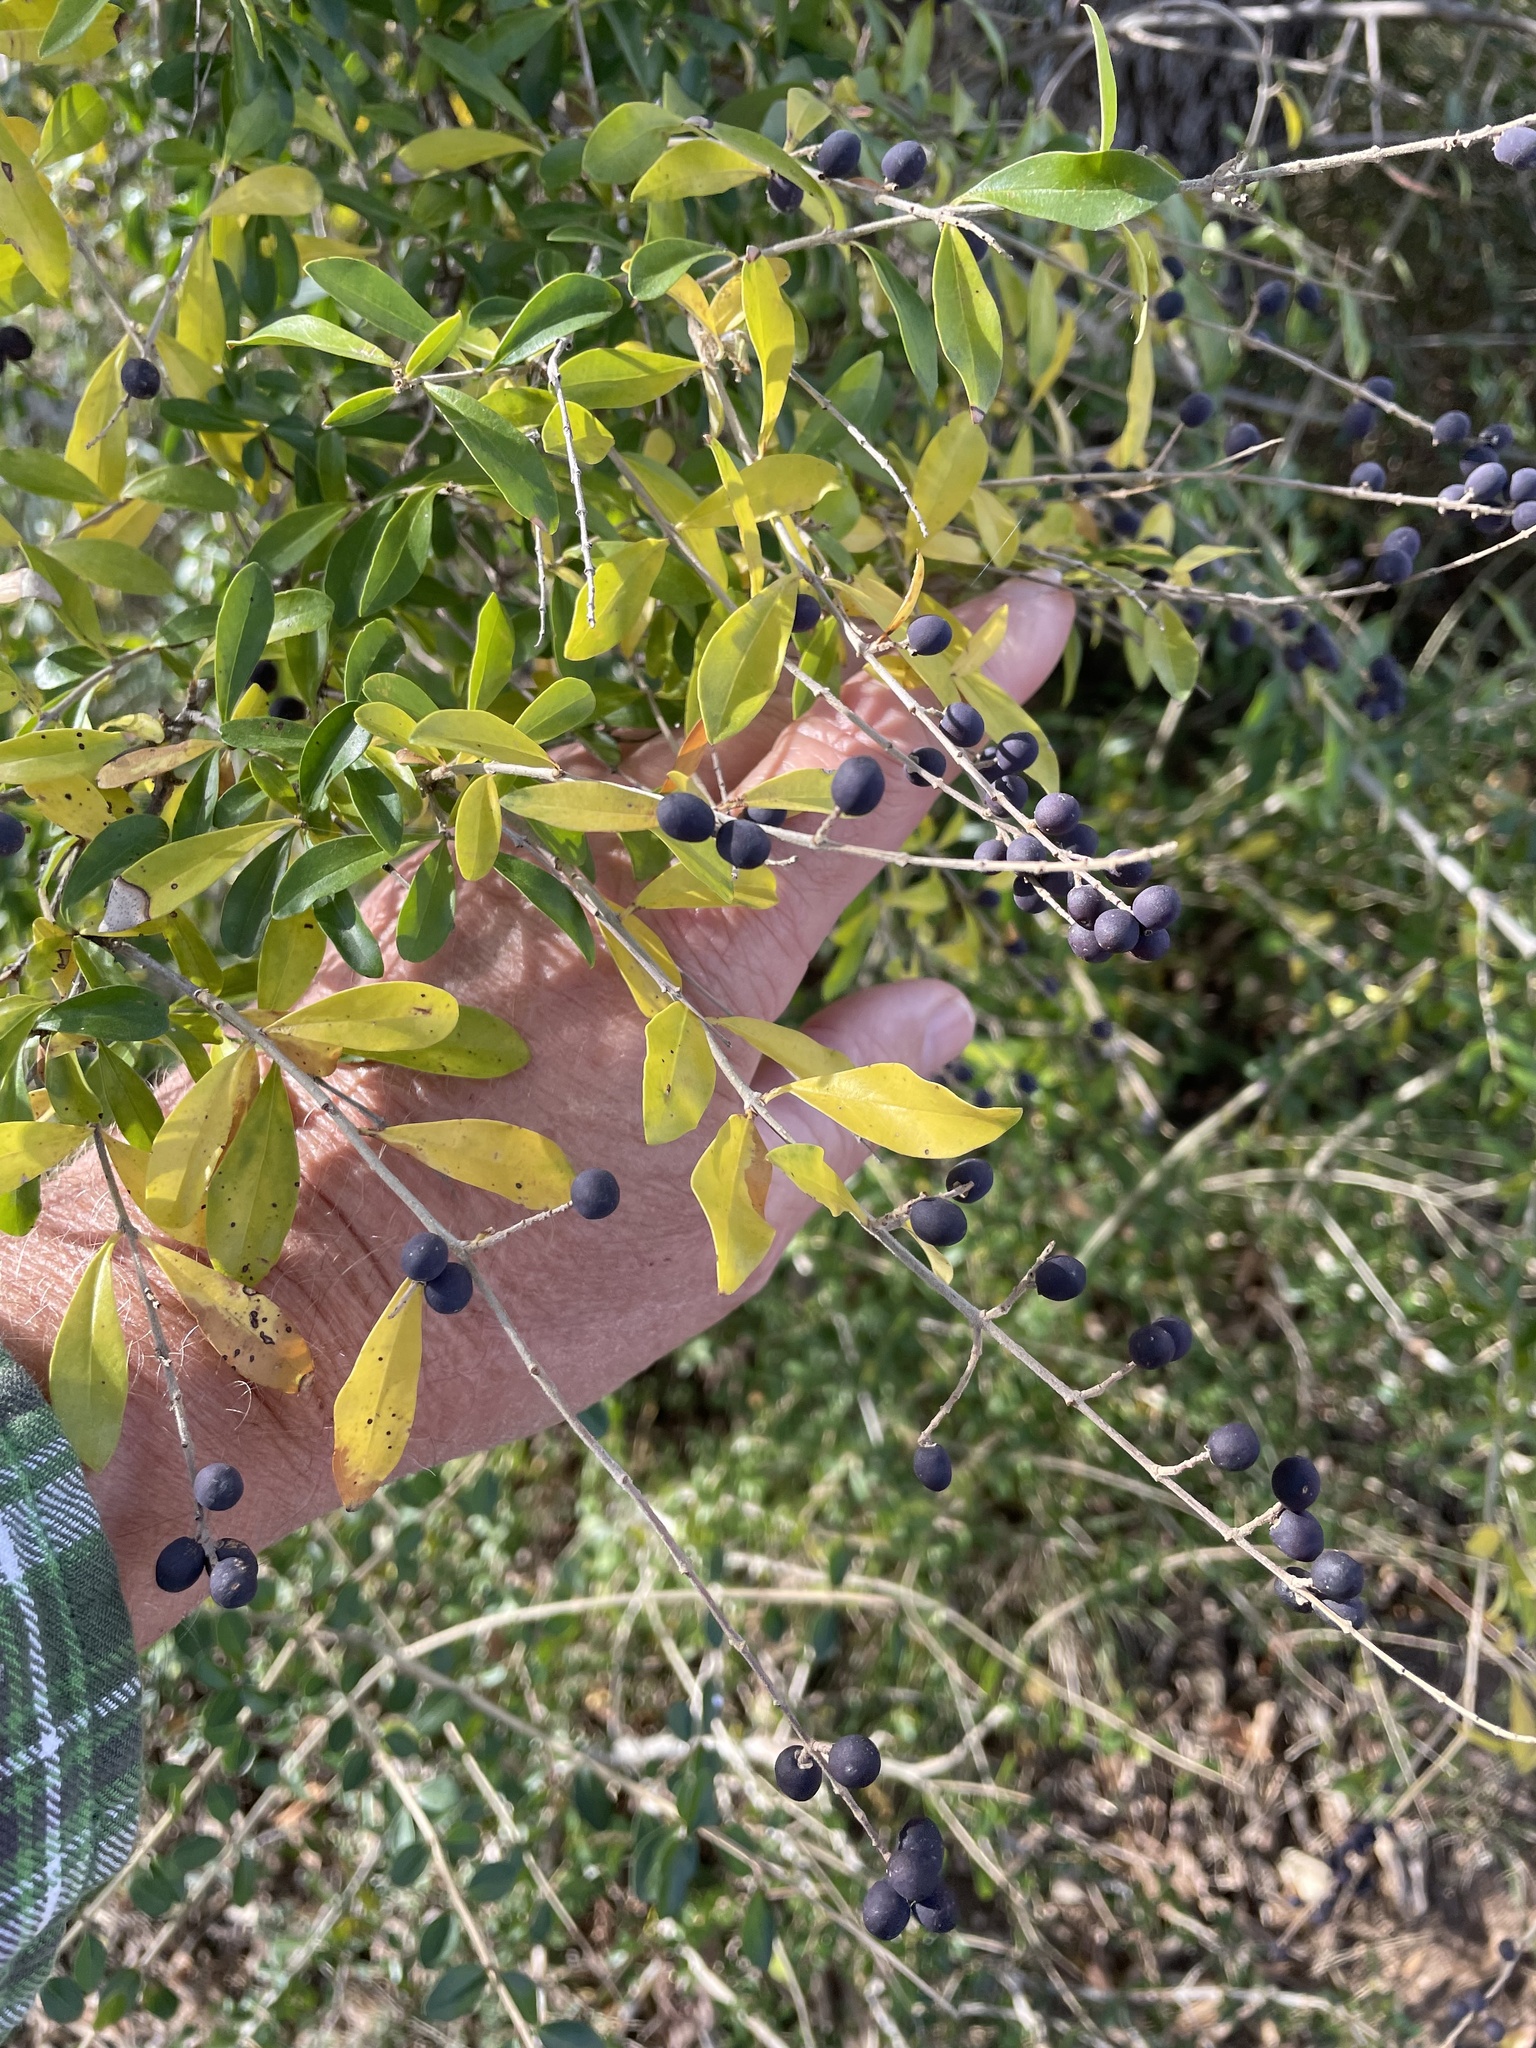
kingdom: Plantae
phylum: Tracheophyta
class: Magnoliopsida
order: Lamiales
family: Oleaceae
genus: Ligustrum
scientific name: Ligustrum quihoui
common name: Waxyleaf privet
